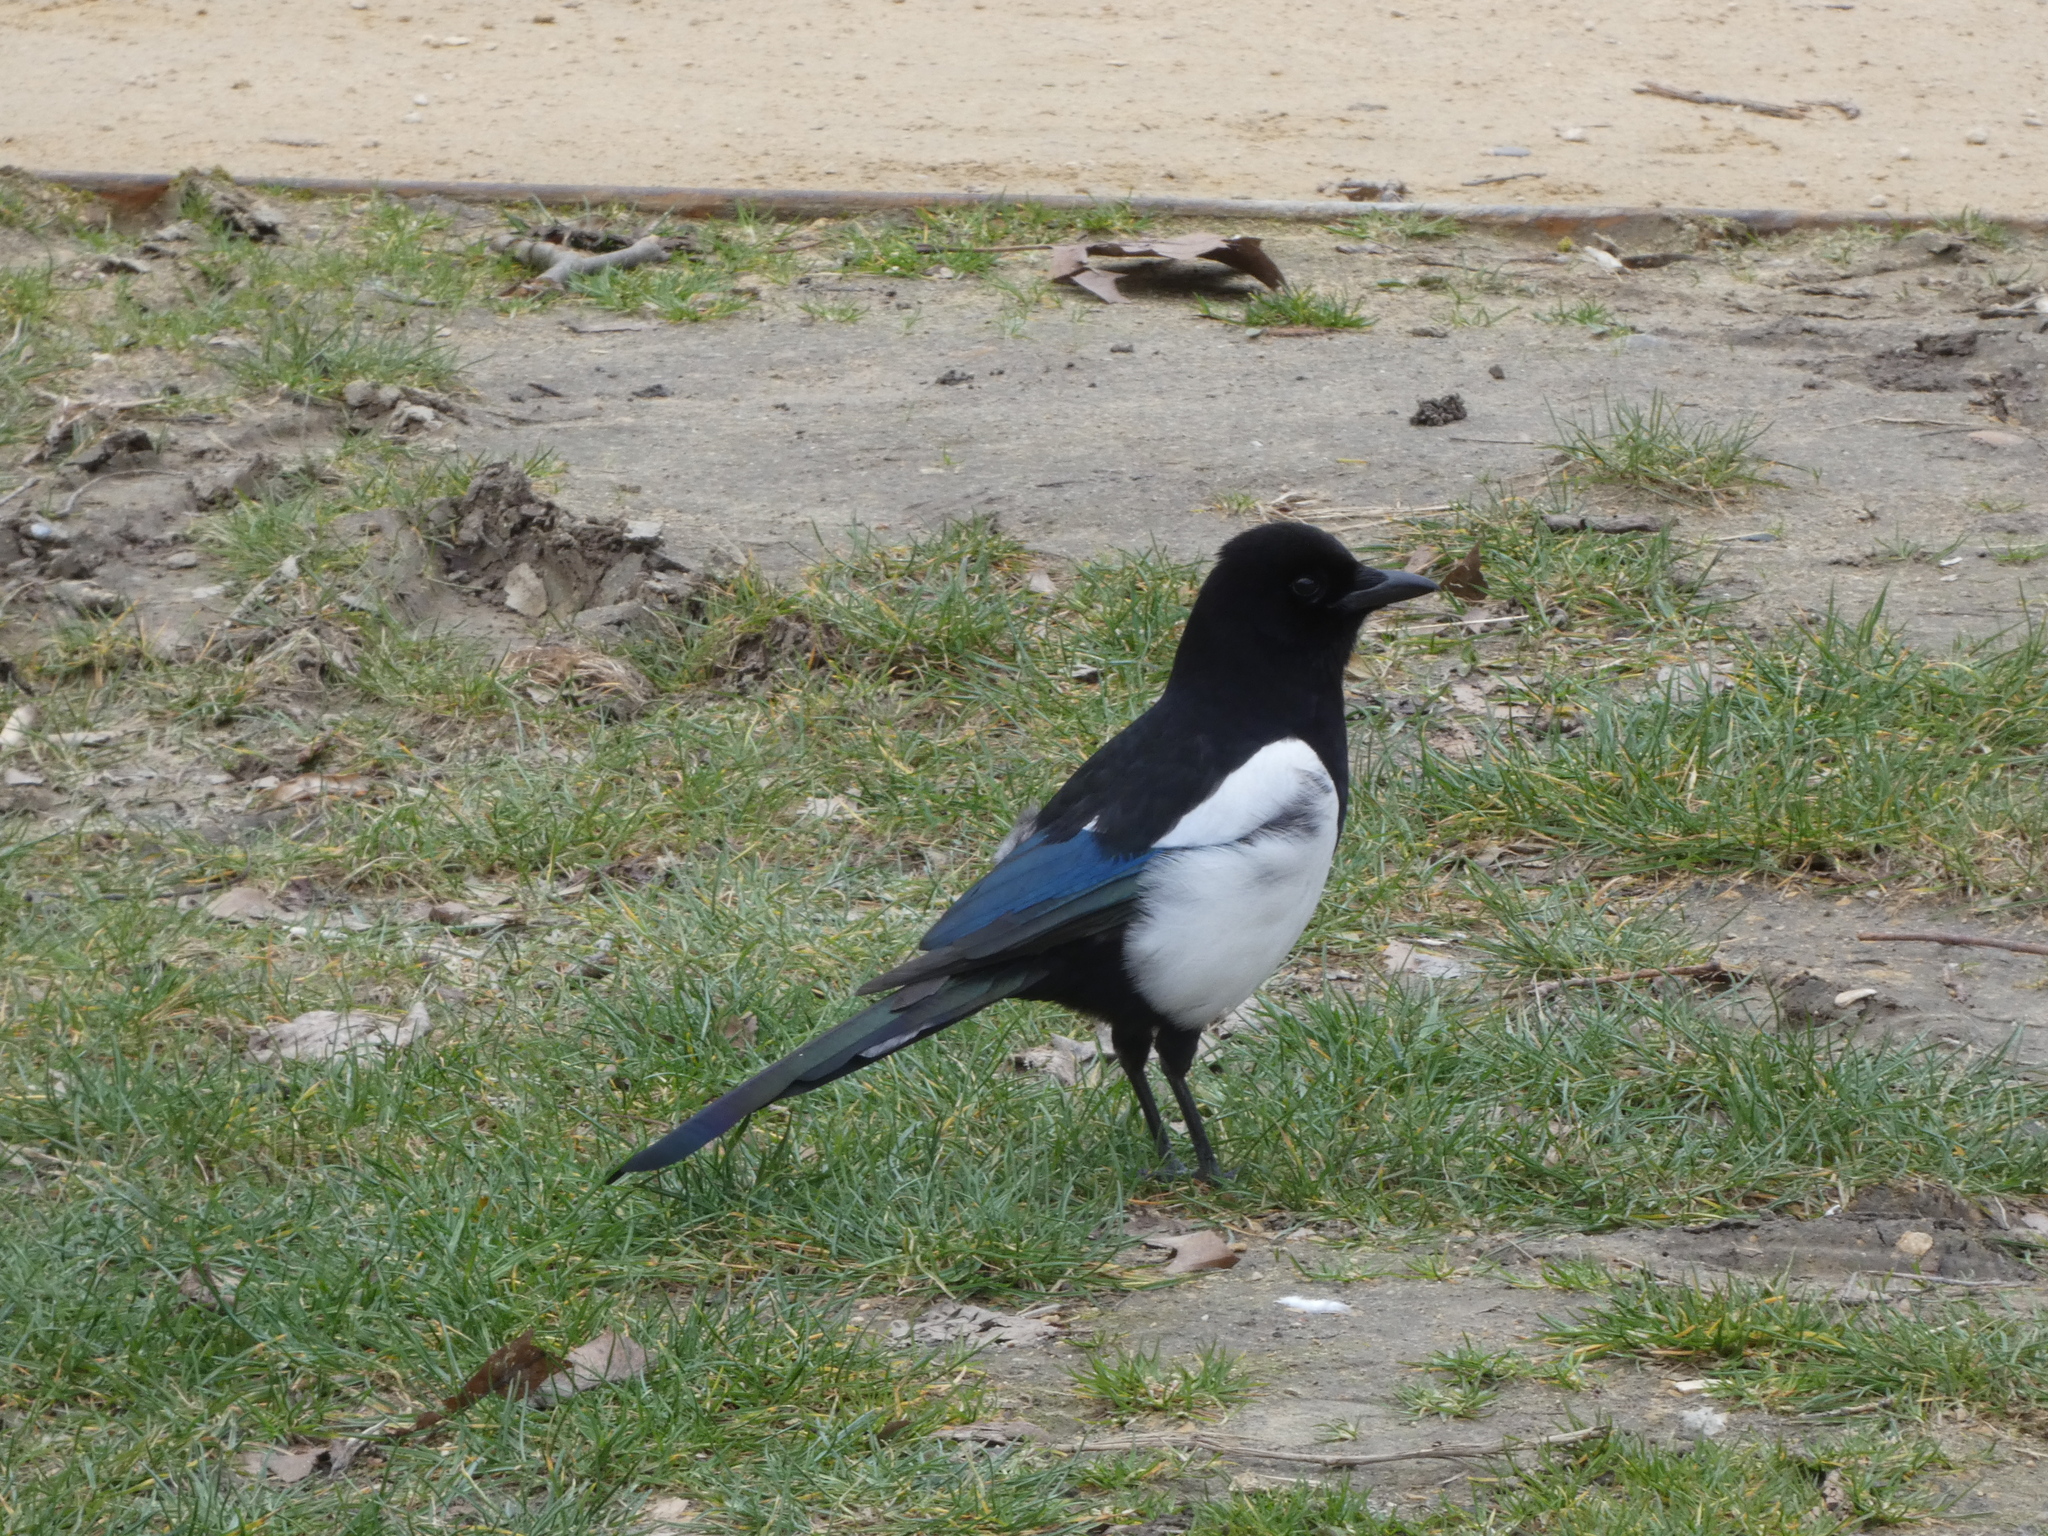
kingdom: Animalia
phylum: Chordata
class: Aves
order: Passeriformes
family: Corvidae
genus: Pica
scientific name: Pica pica
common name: Eurasian magpie
